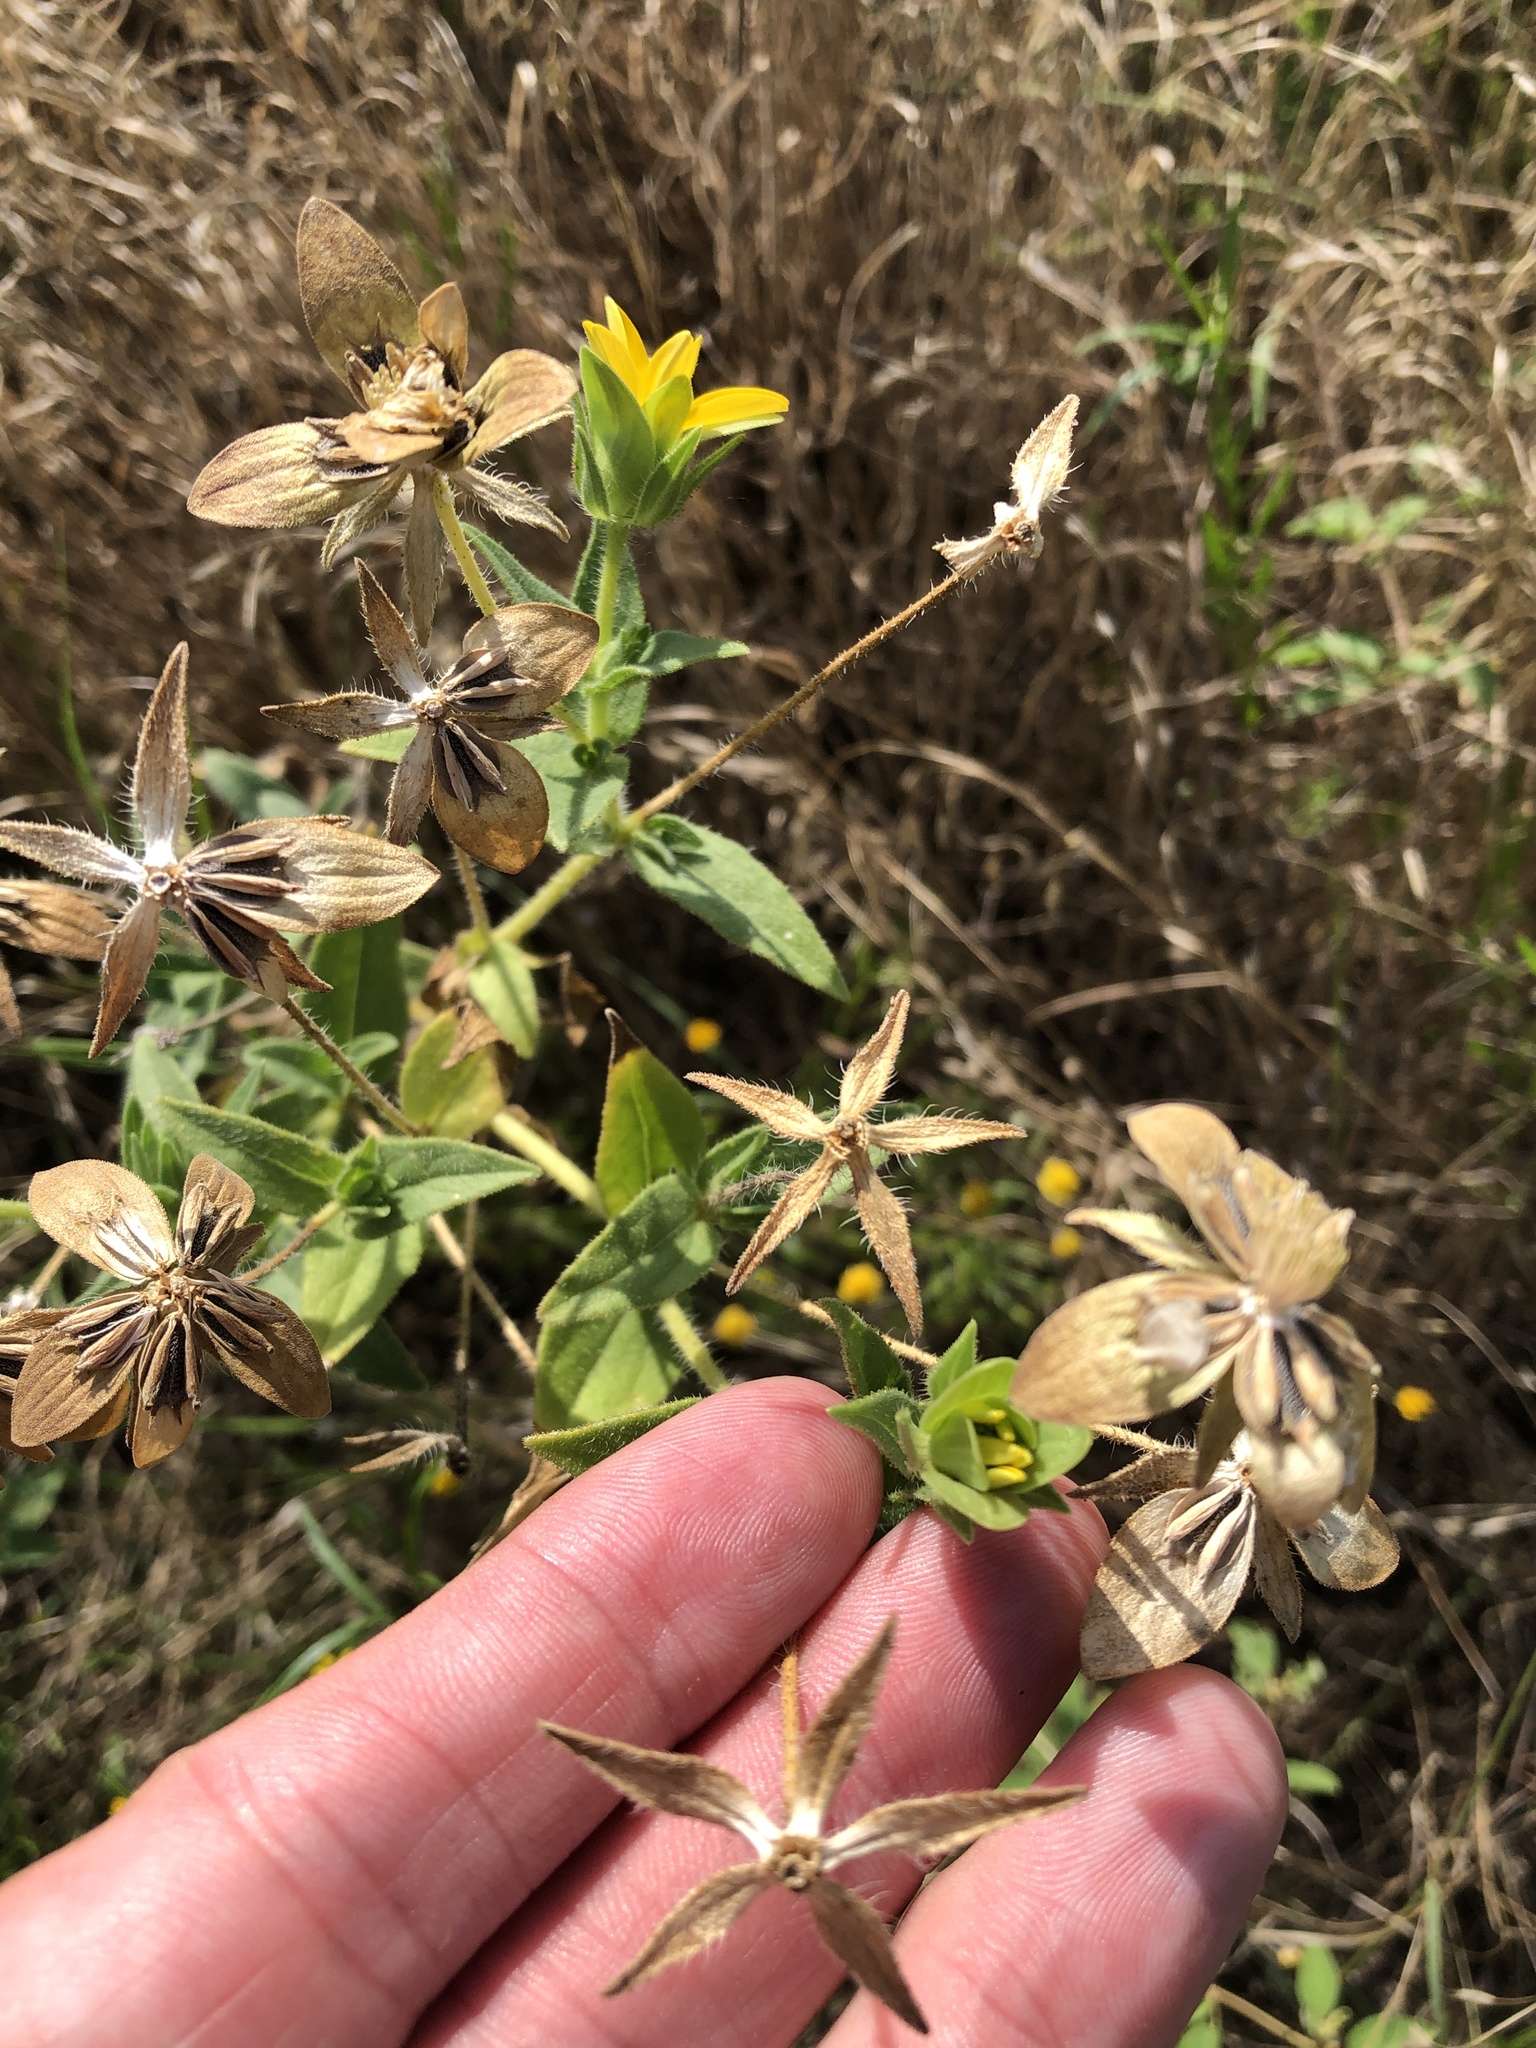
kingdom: Plantae
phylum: Tracheophyta
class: Magnoliopsida
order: Asterales
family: Asteraceae
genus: Lindheimera
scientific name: Lindheimera texana
